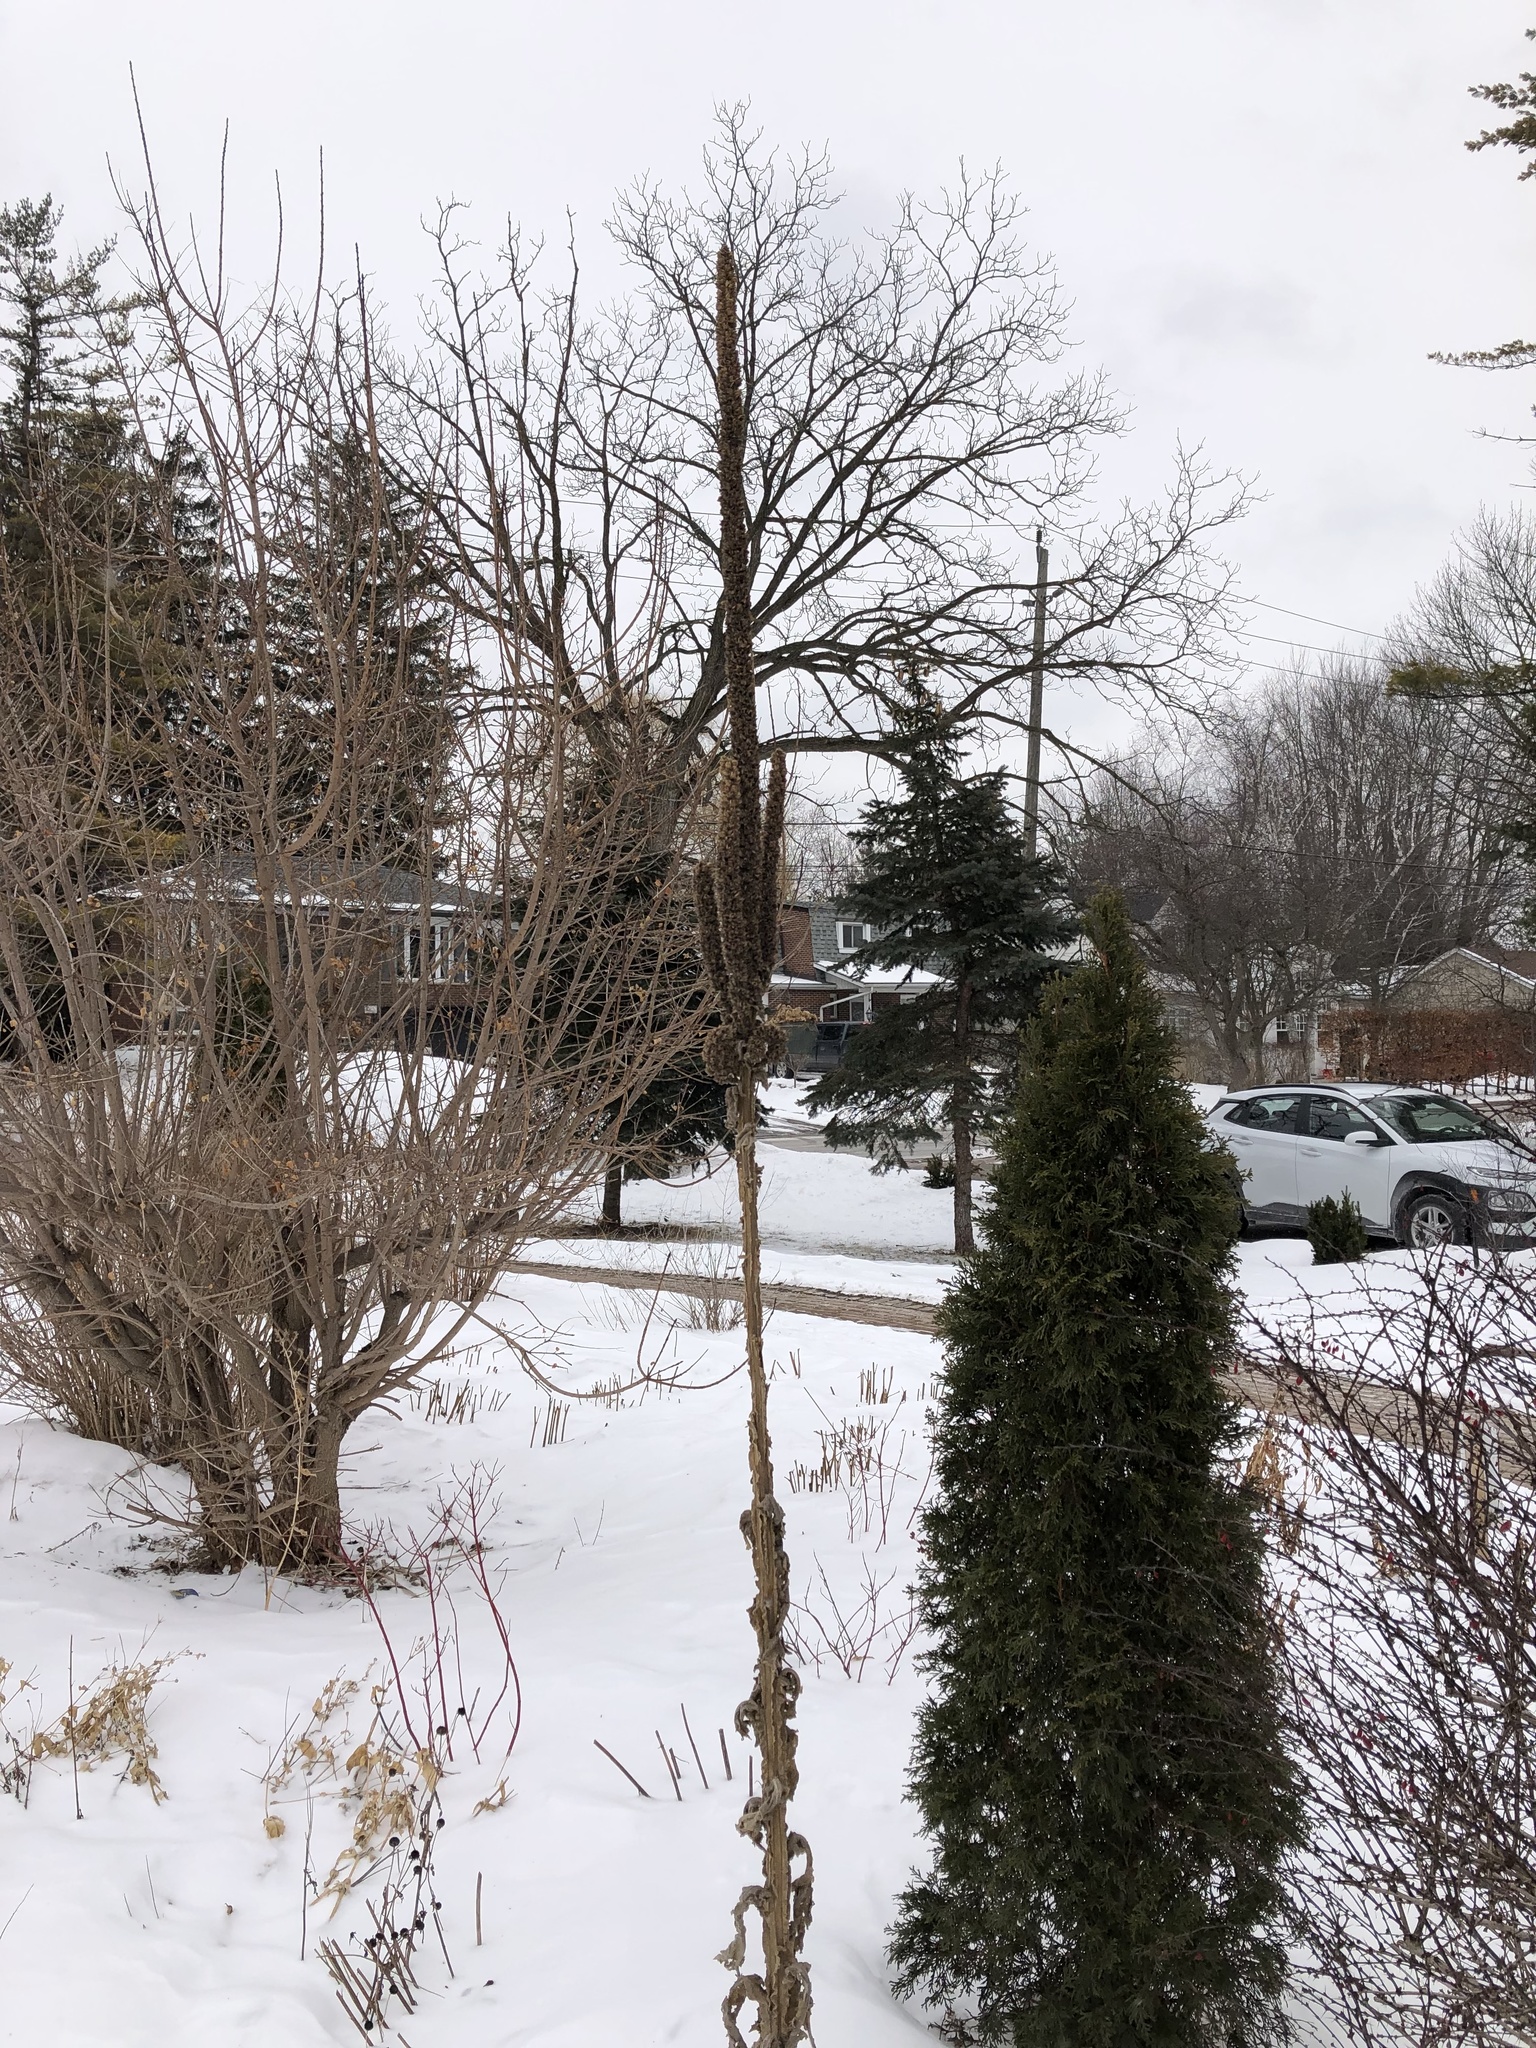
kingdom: Plantae
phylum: Tracheophyta
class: Magnoliopsida
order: Lamiales
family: Scrophulariaceae
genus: Verbascum
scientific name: Verbascum thapsus
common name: Common mullein
